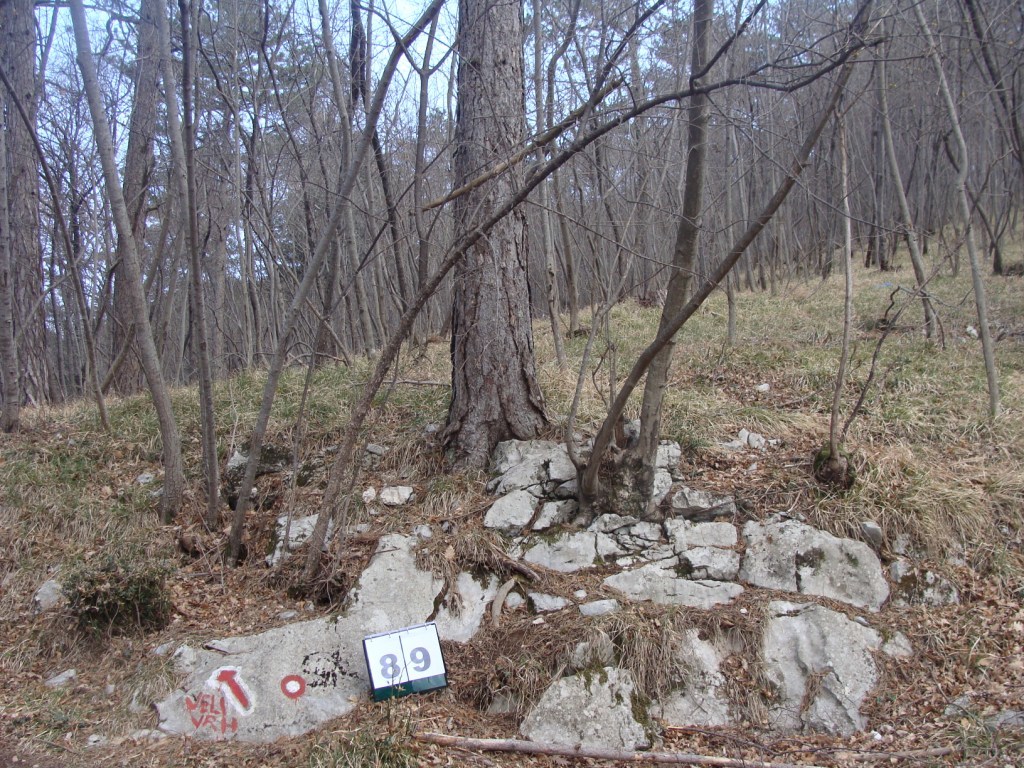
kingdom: Plantae
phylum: Tracheophyta
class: Magnoliopsida
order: Cornales
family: Cornaceae
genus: Cornus
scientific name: Cornus mas
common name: Cornelian-cherry
